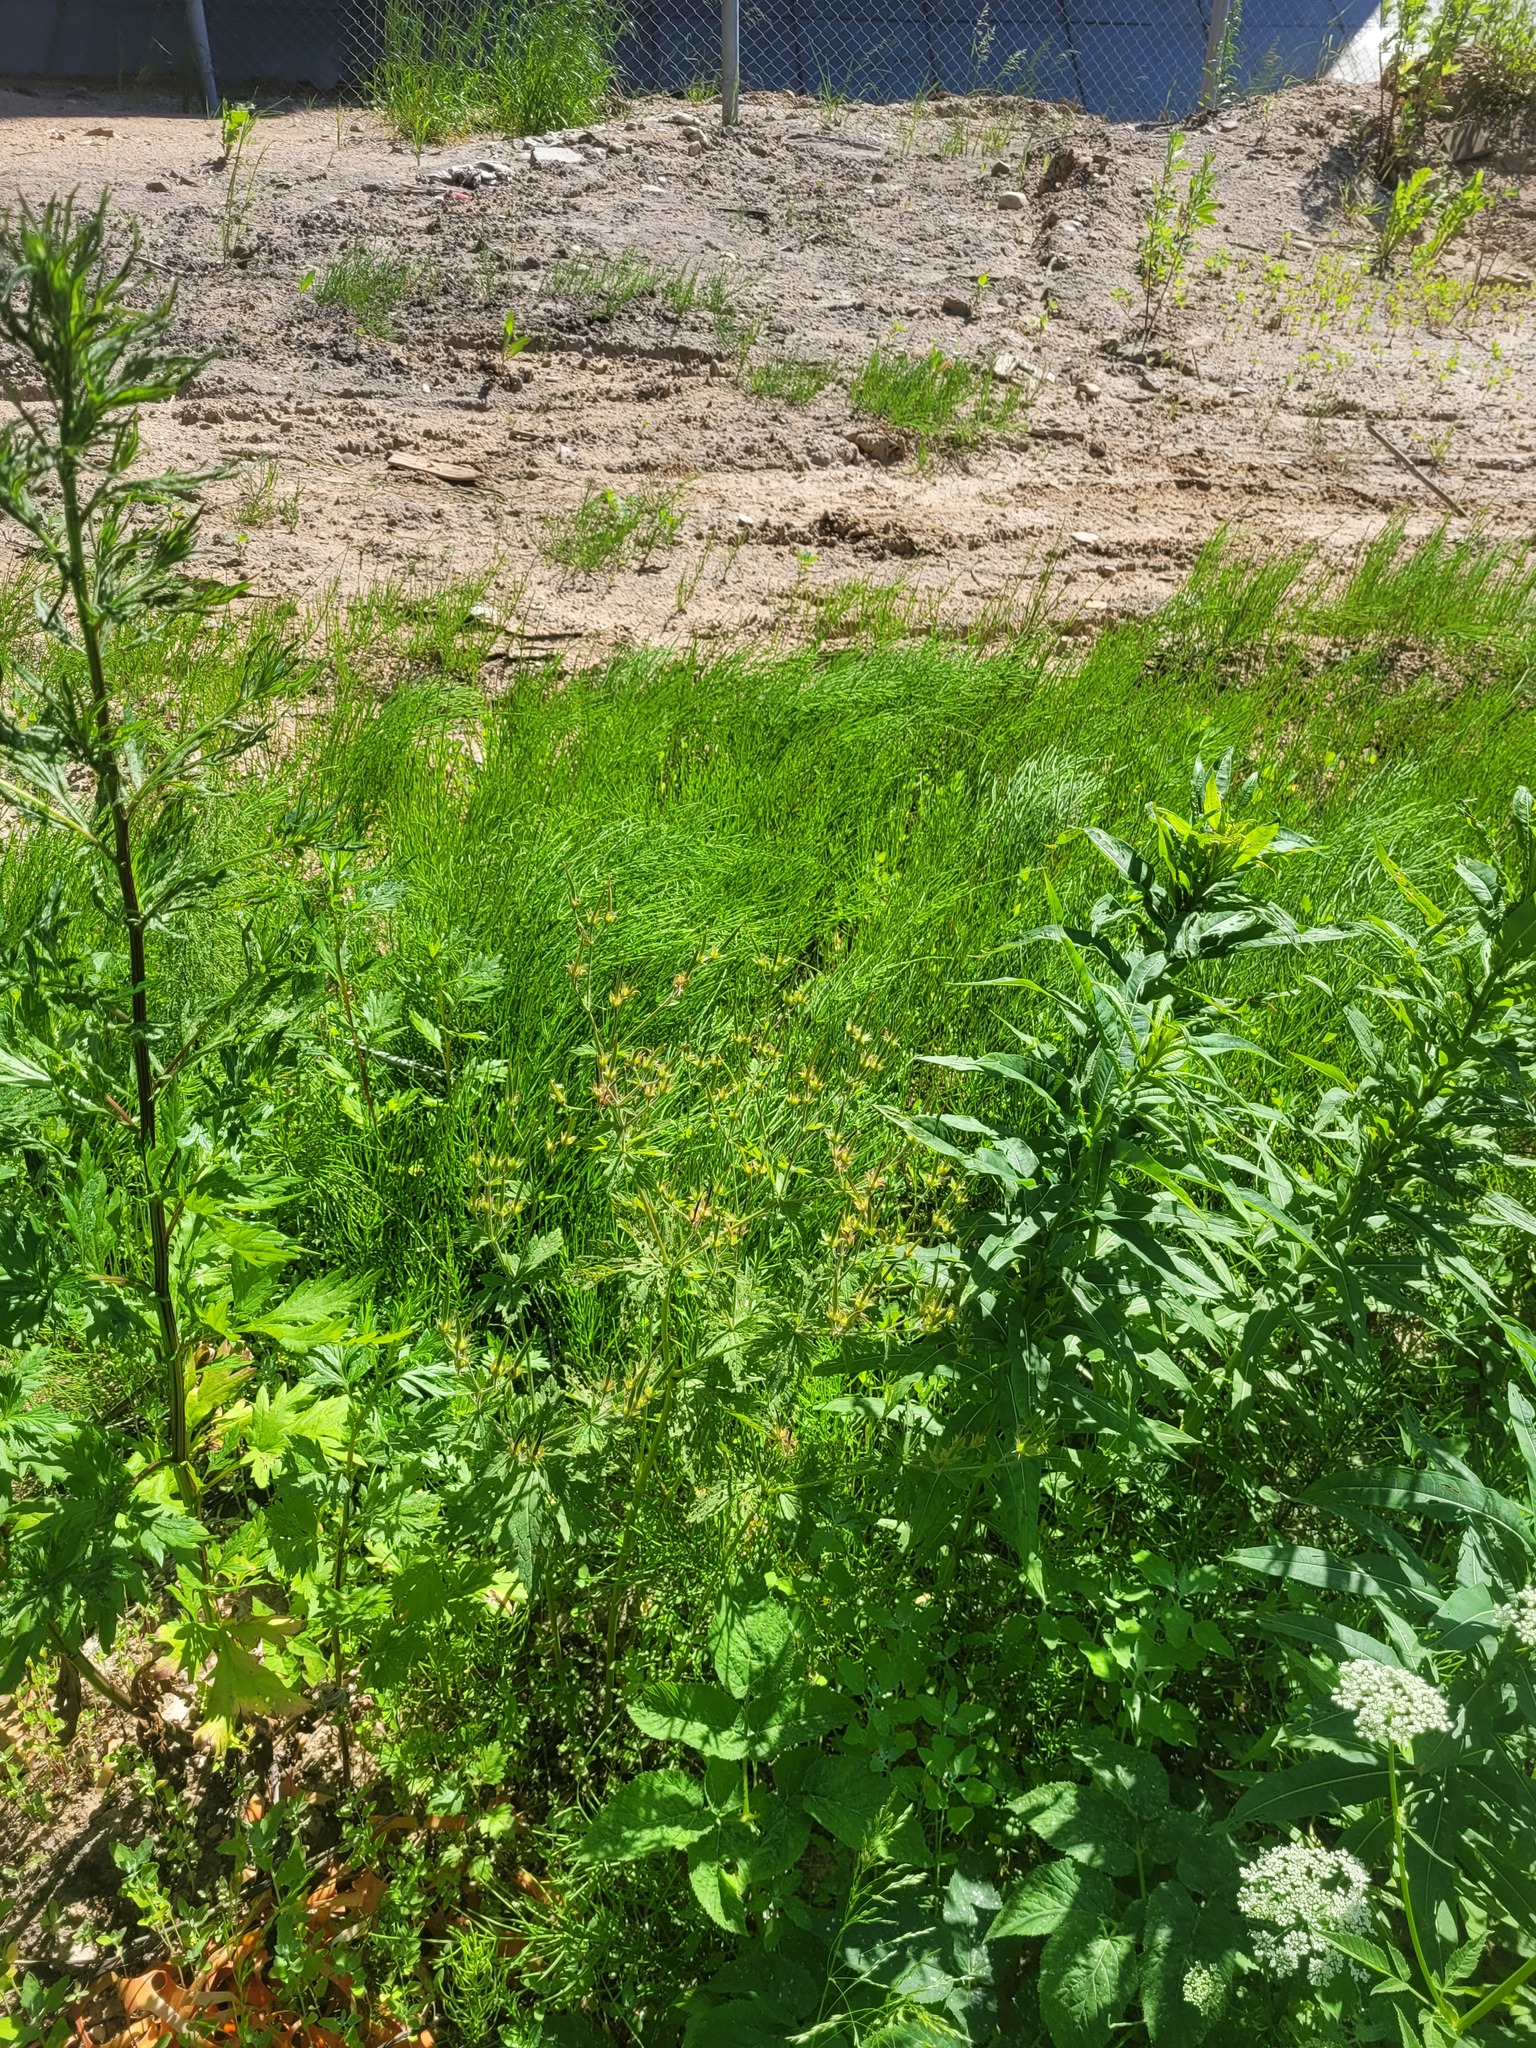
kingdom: Plantae
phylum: Tracheophyta
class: Magnoliopsida
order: Geraniales
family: Geraniaceae
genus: Geranium
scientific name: Geranium sylvaticum
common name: Wood crane's-bill
